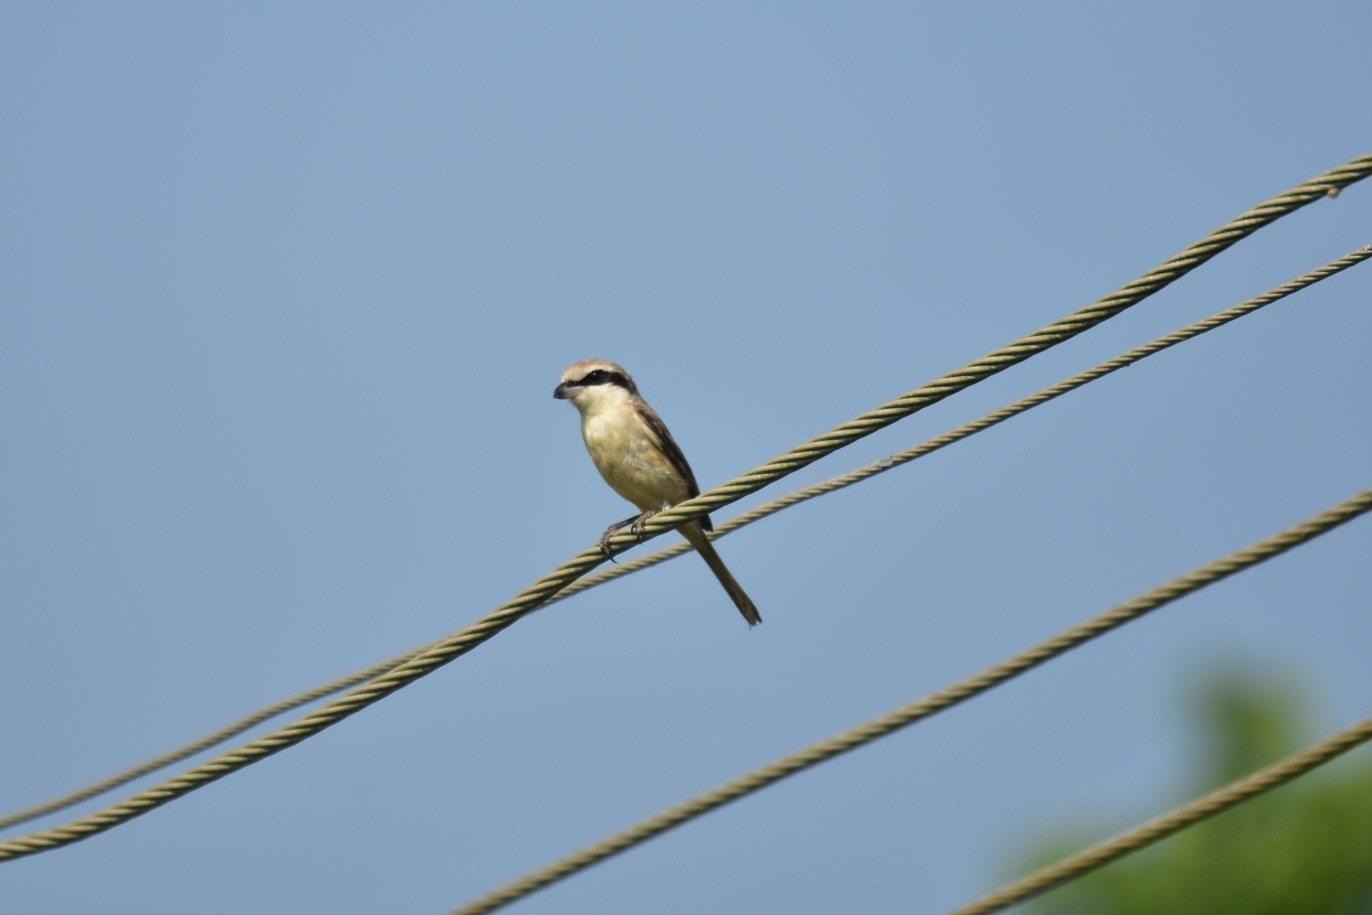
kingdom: Animalia
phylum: Chordata
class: Aves
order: Passeriformes
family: Laniidae
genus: Lanius
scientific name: Lanius cristatus
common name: Brown shrike
